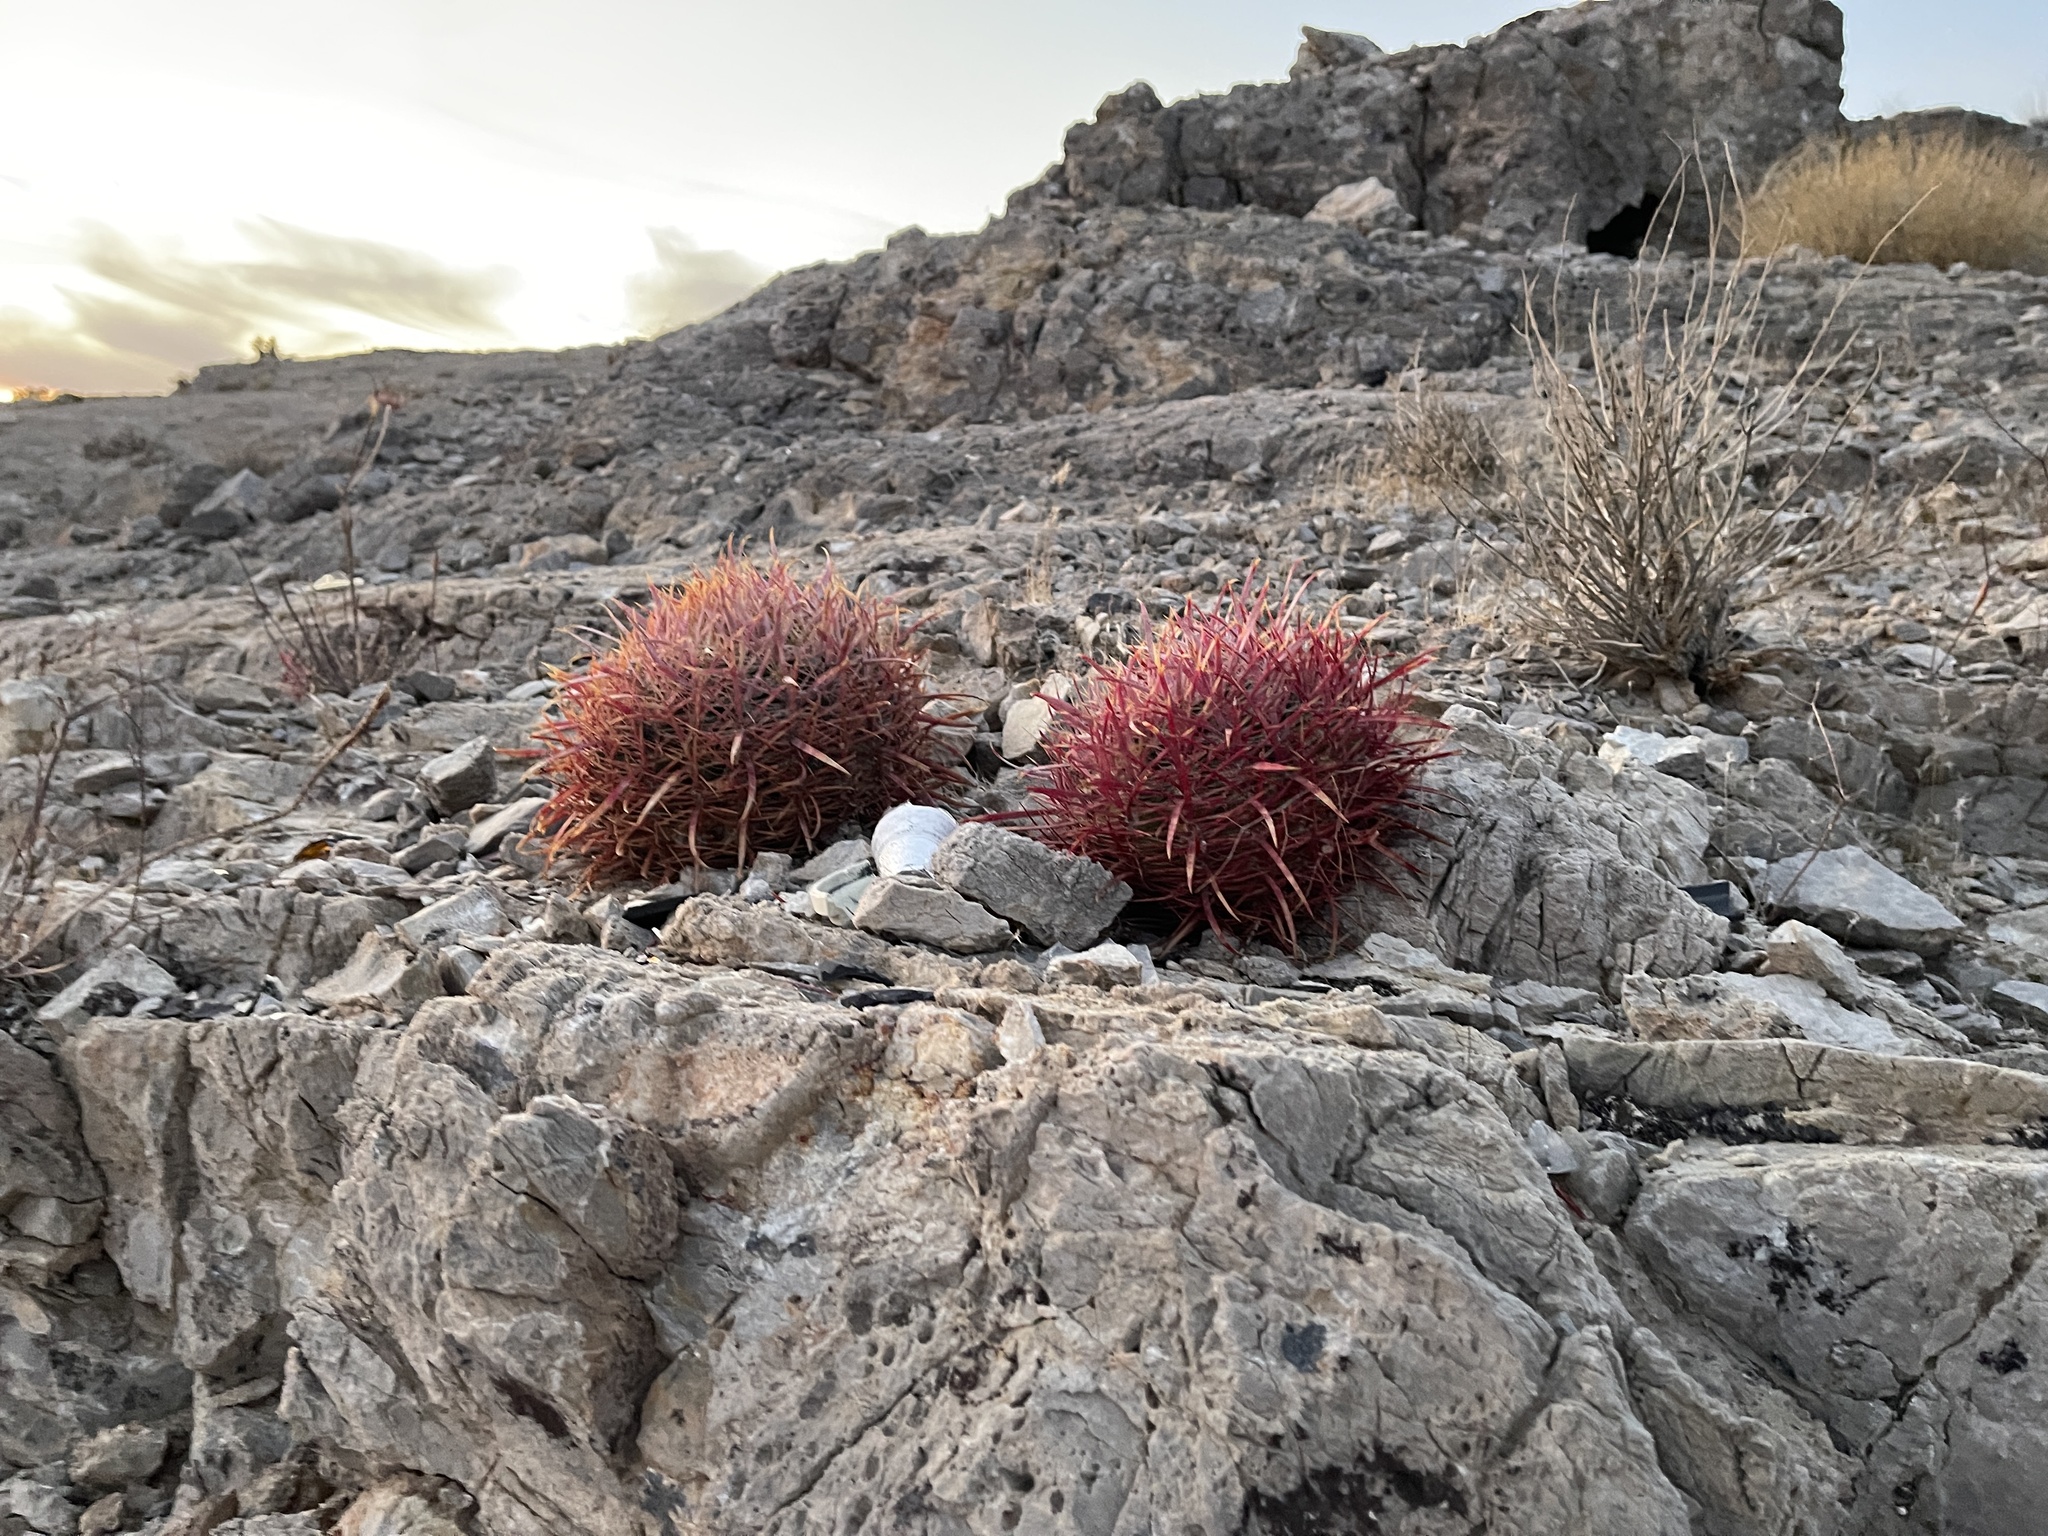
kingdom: Plantae
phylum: Tracheophyta
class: Magnoliopsida
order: Caryophyllales
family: Cactaceae
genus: Ferocactus
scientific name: Ferocactus cylindraceus
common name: California barrel cactus
